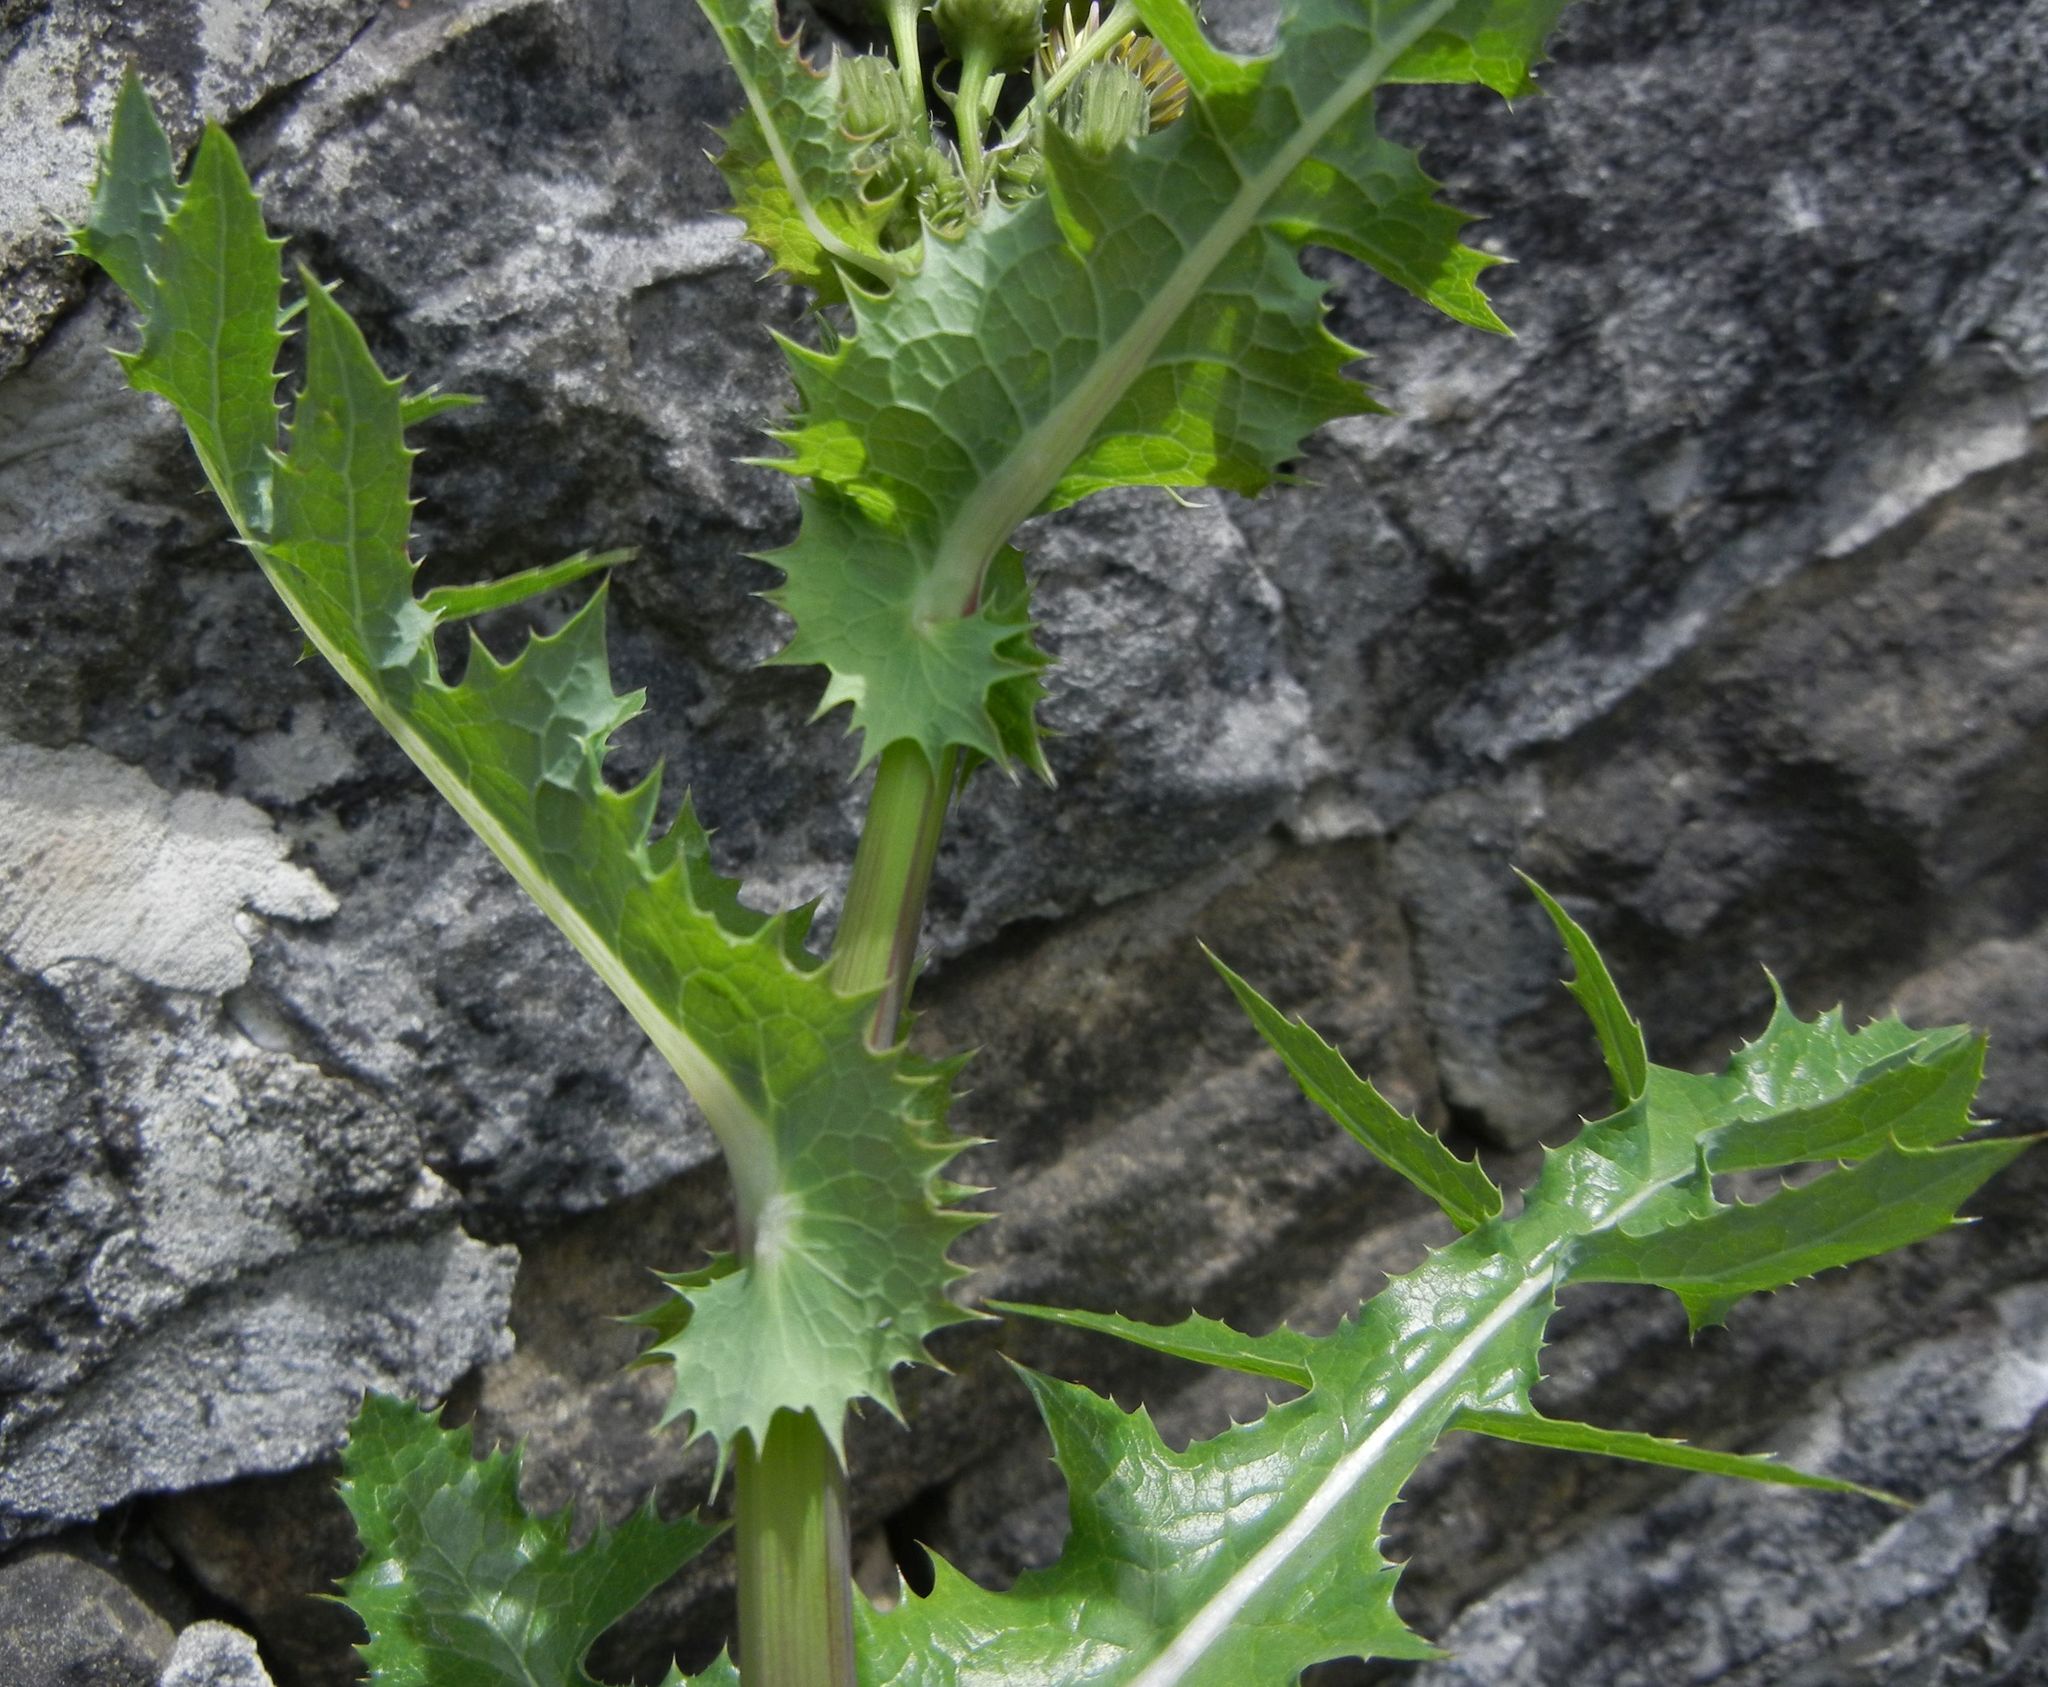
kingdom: Plantae
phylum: Tracheophyta
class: Magnoliopsida
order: Asterales
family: Asteraceae
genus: Sonchus
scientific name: Sonchus asper
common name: Prickly sow-thistle
